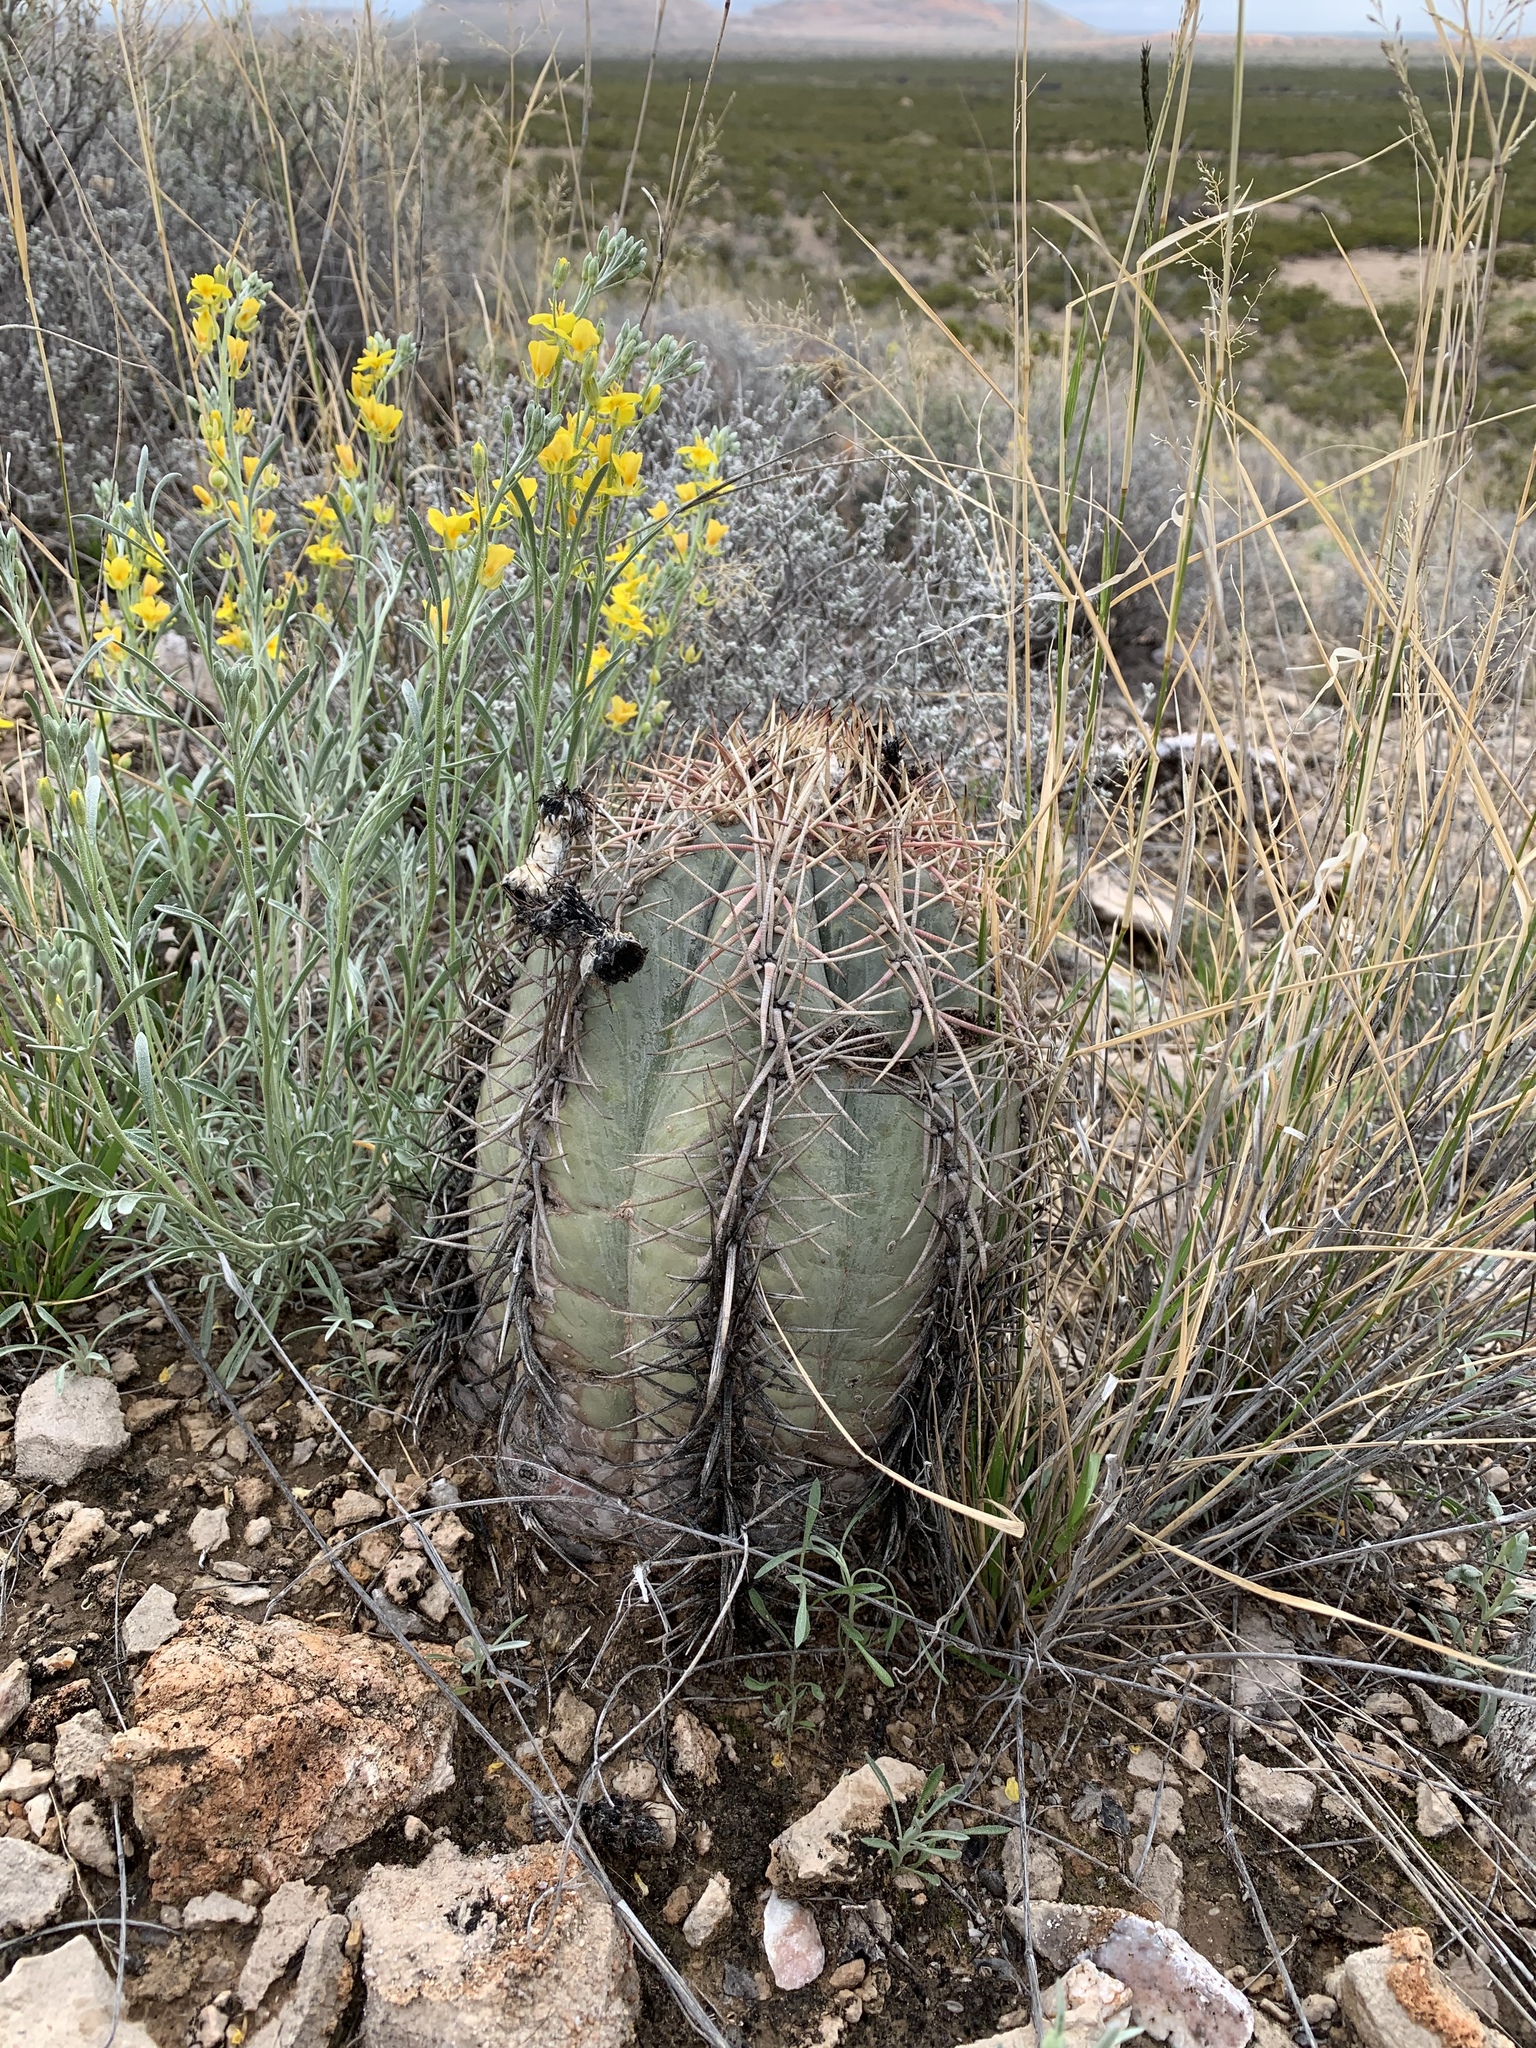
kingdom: Plantae
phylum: Tracheophyta
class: Magnoliopsida
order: Caryophyllales
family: Cactaceae
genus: Echinocactus
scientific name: Echinocactus horizonthalonius
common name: Devilshead
